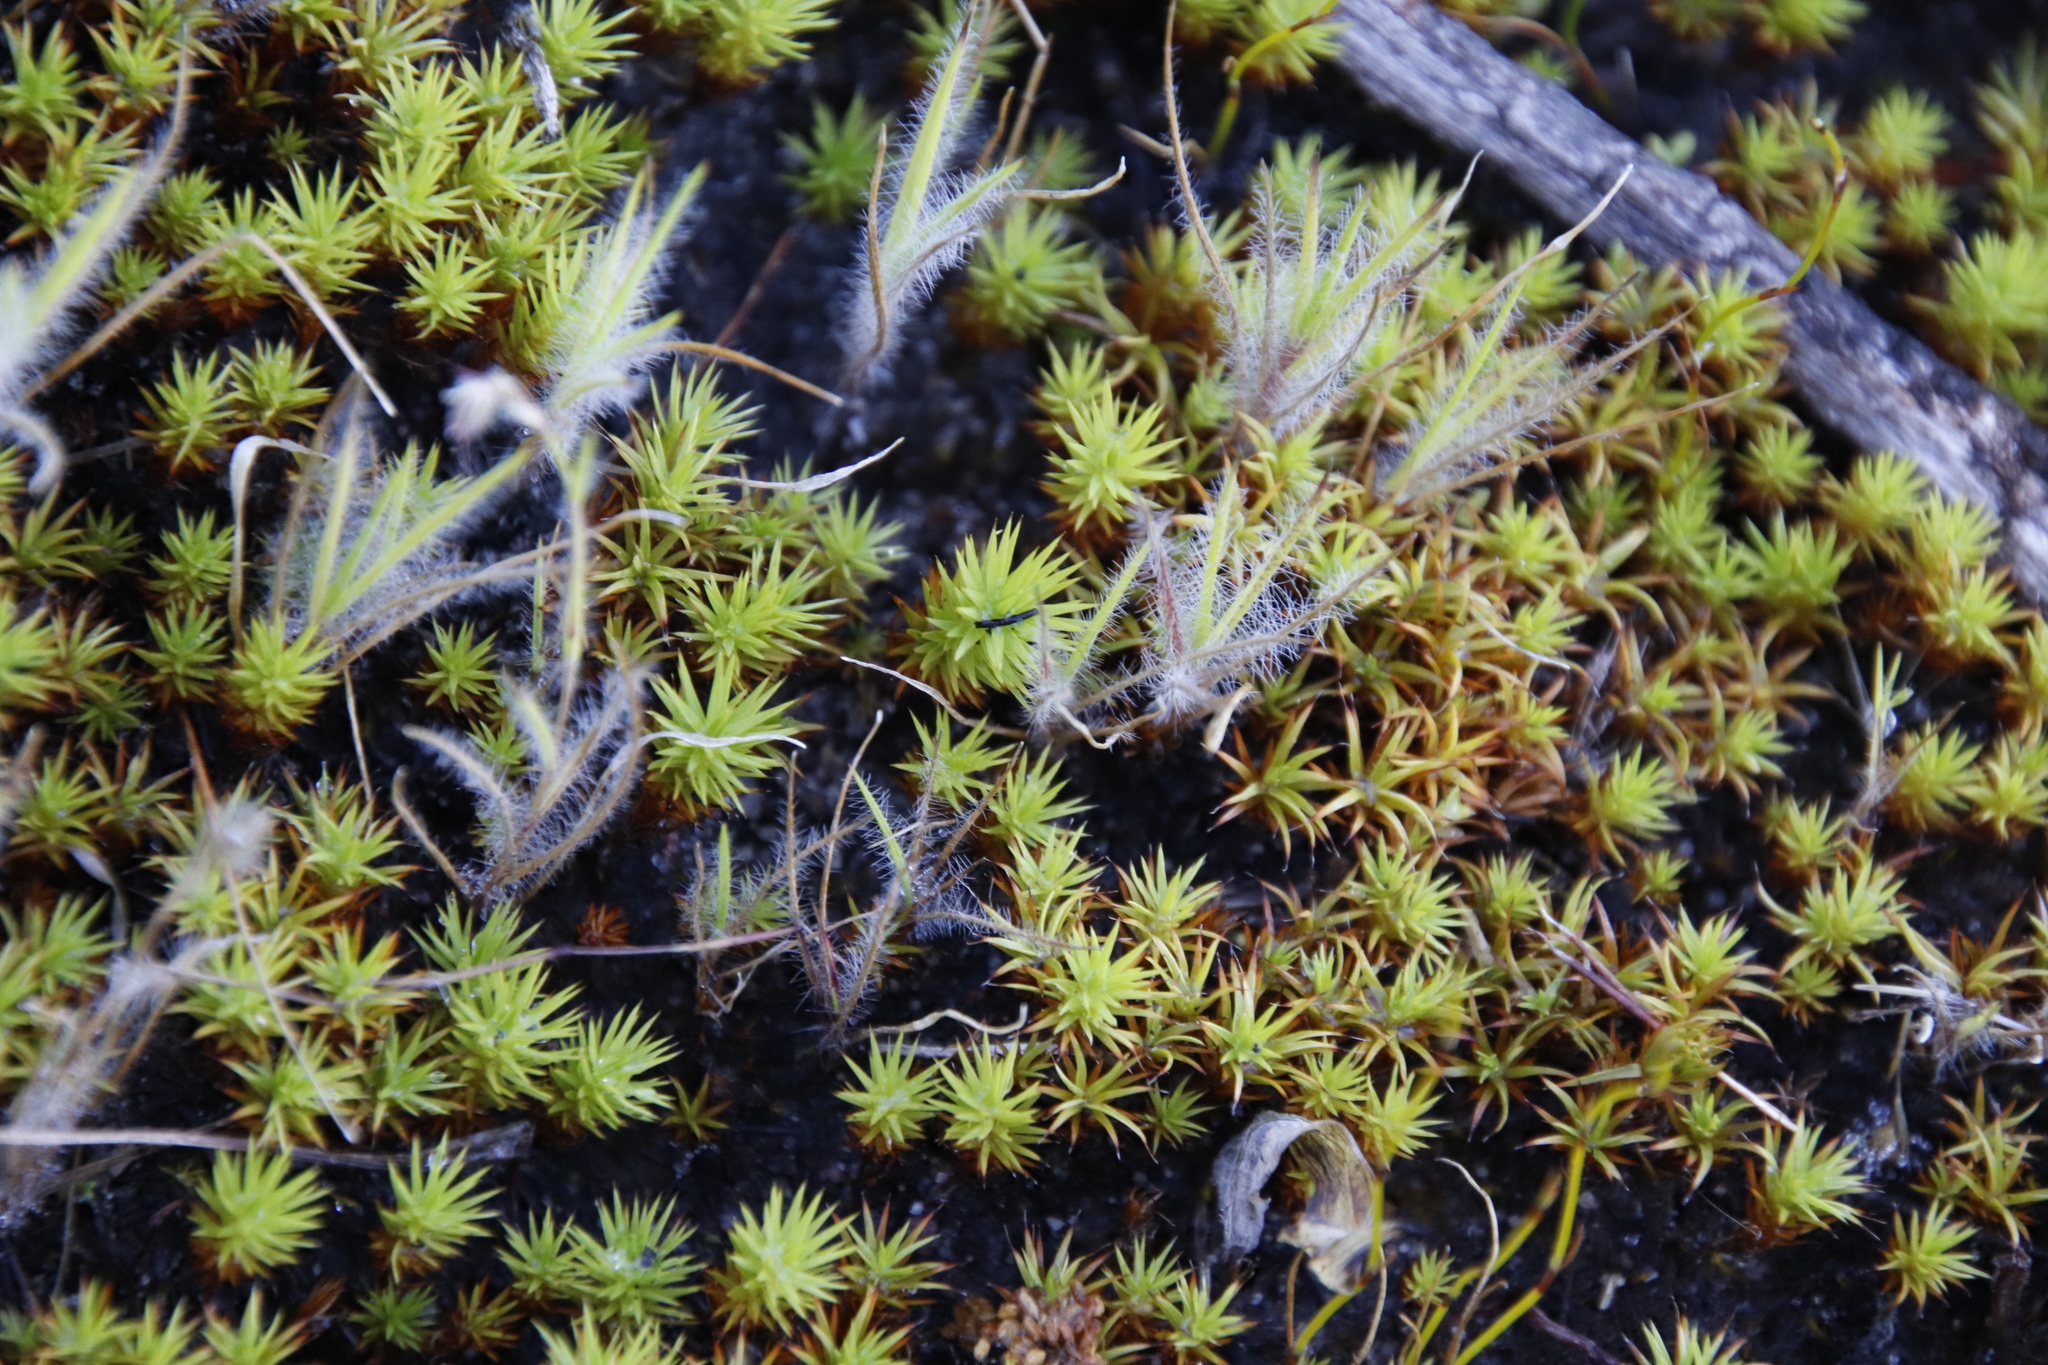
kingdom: Plantae
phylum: Bryophyta
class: Polytrichopsida
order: Polytrichales
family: Polytrichaceae
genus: Polytrichum
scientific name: Polytrichum juniperinum
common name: Juniper haircap moss
